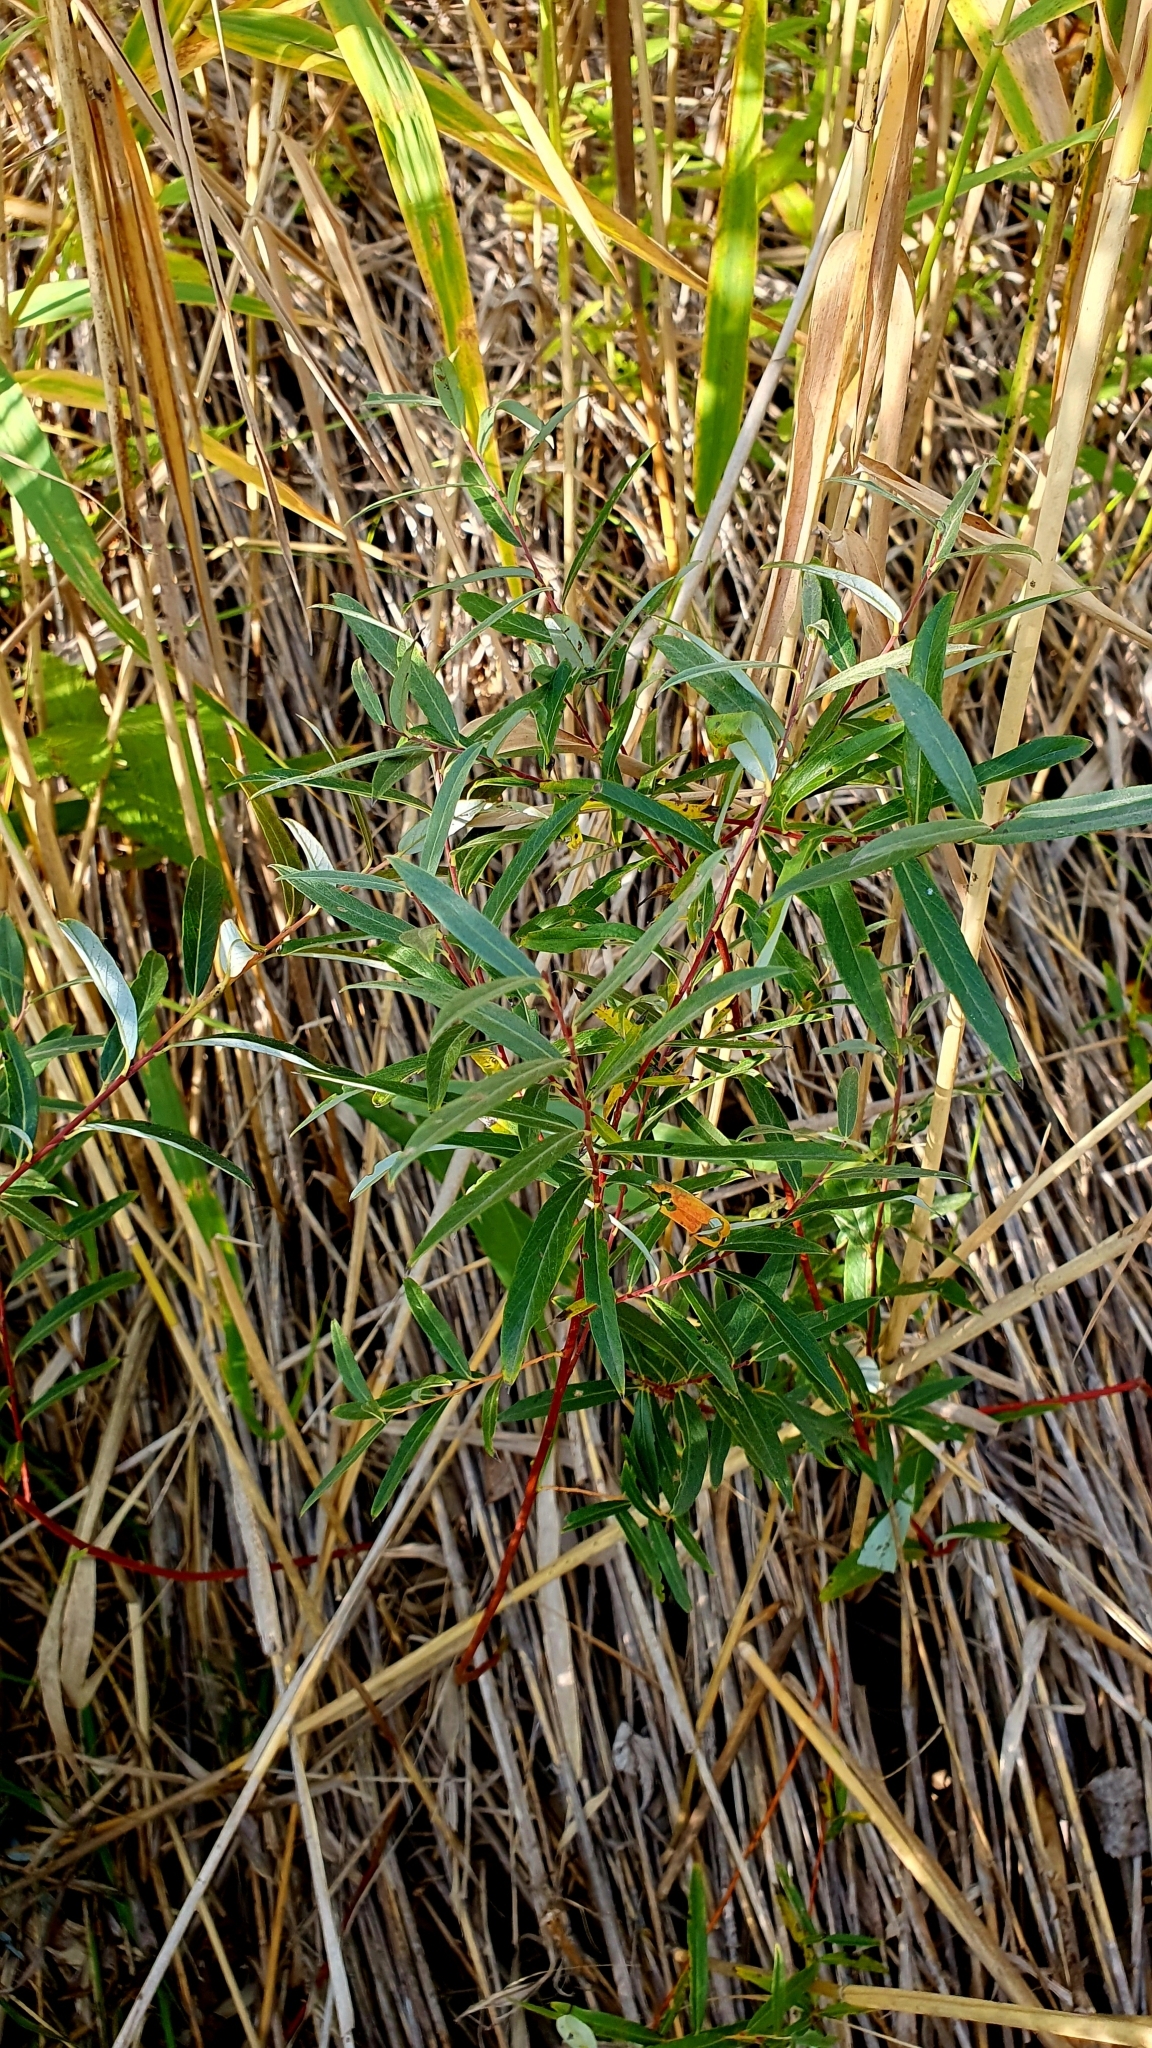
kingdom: Plantae
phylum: Tracheophyta
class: Magnoliopsida
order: Malpighiales
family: Salicaceae
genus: Salix
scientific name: Salix rosmarinifolia
